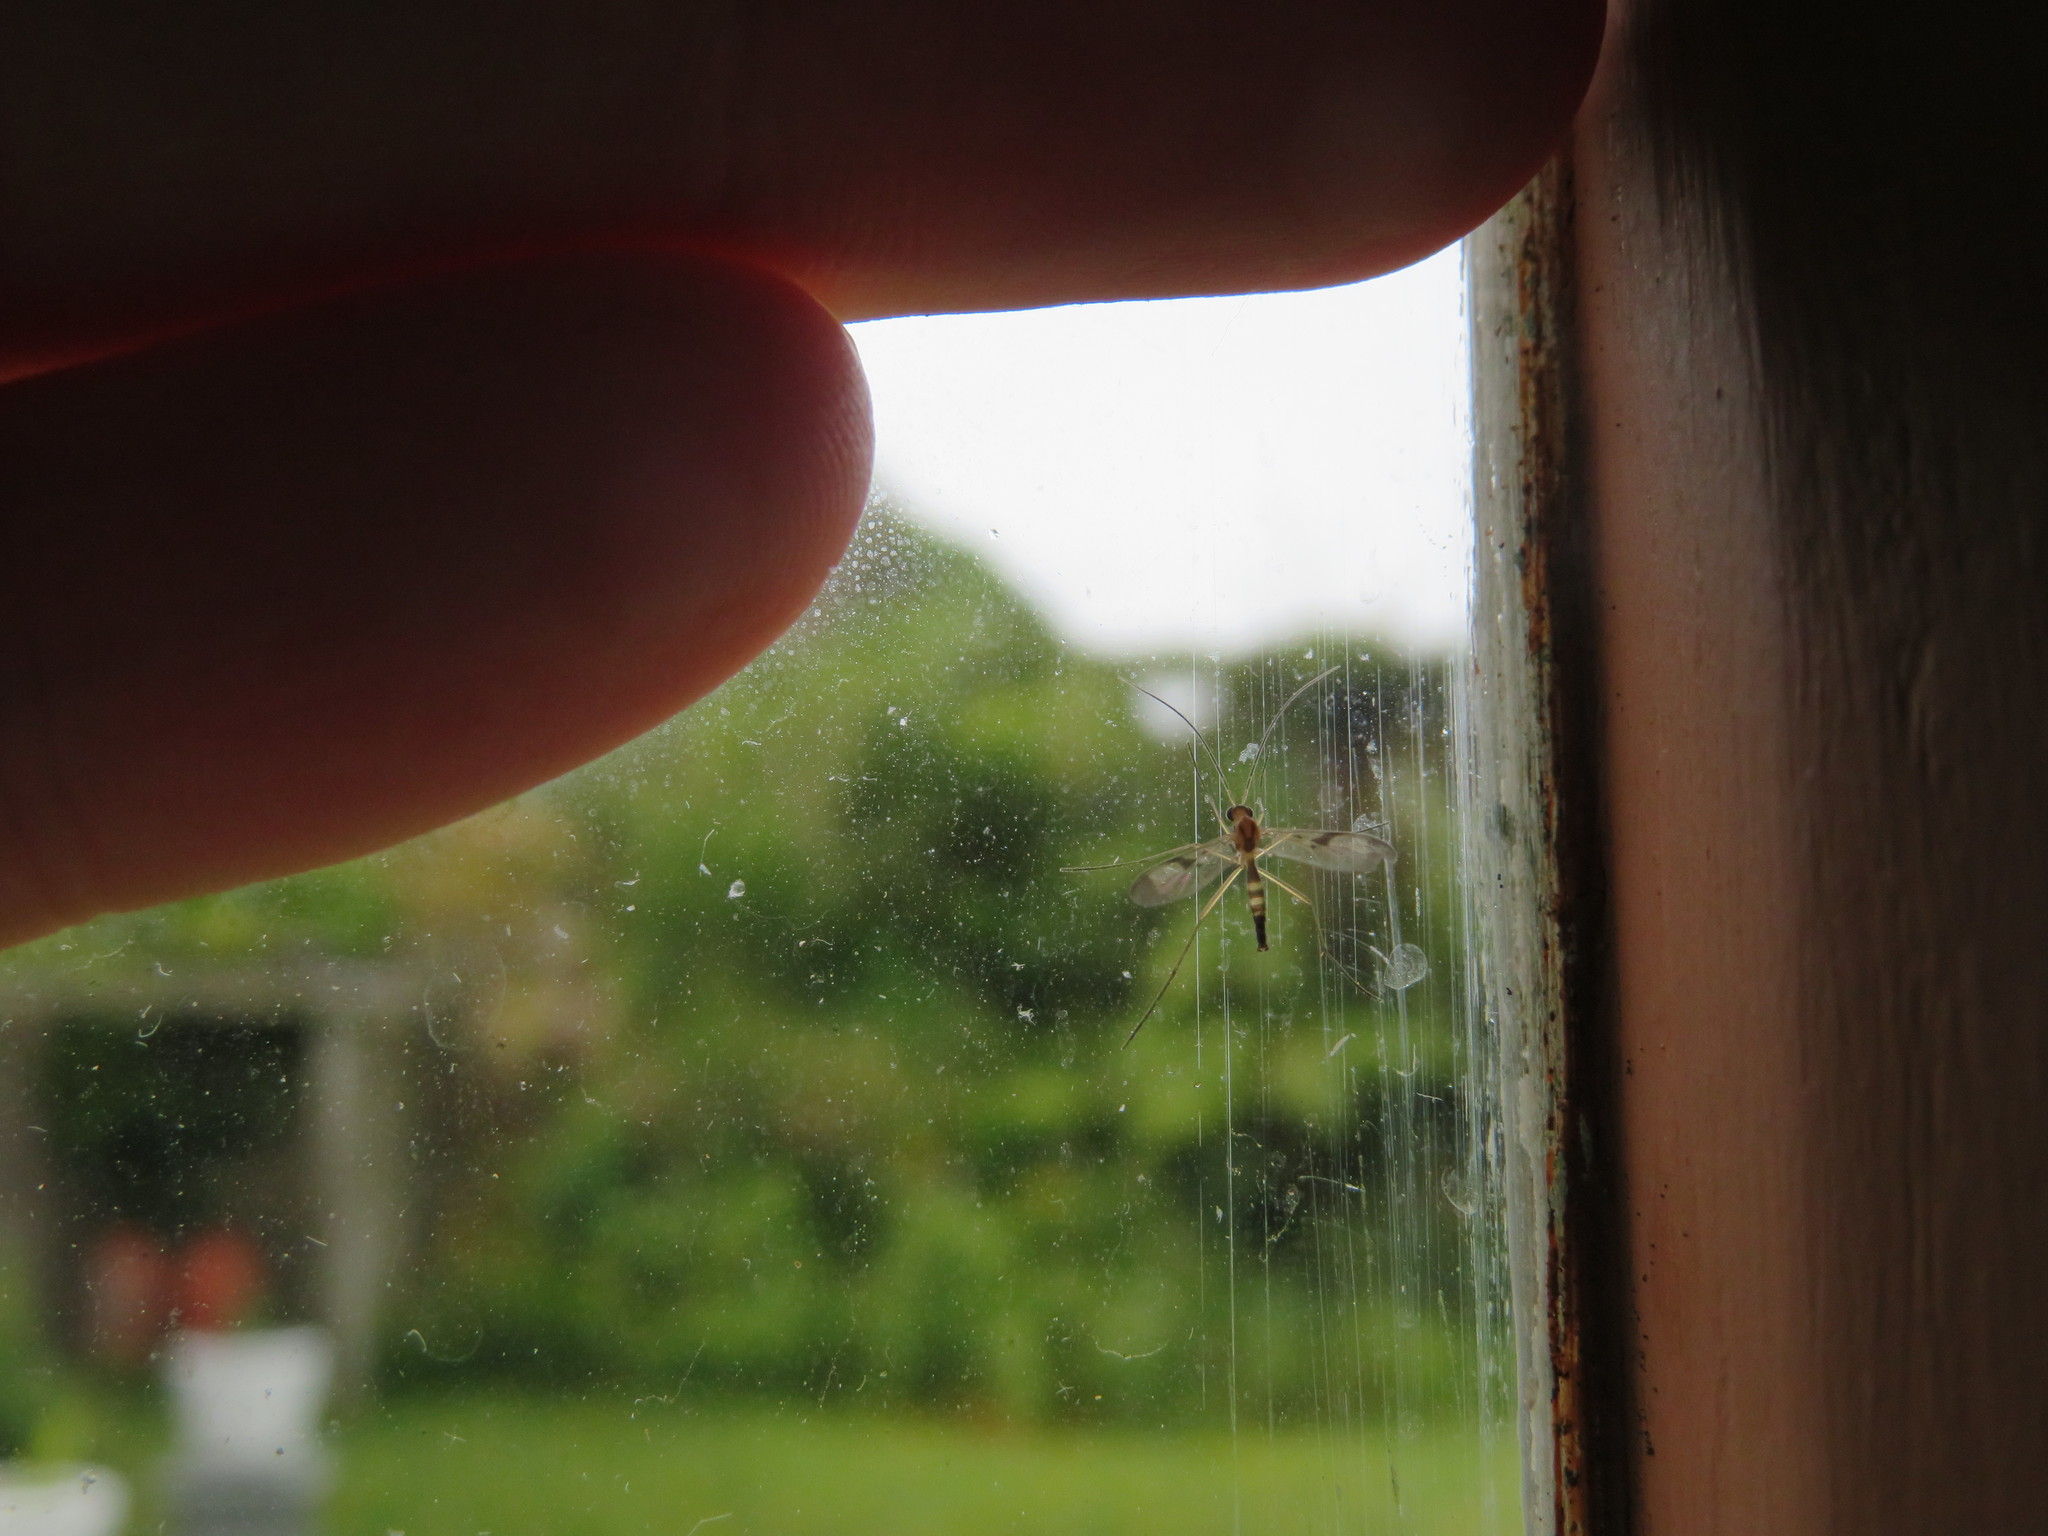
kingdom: Animalia
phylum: Arthropoda
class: Insecta
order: Diptera
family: Keroplatidae
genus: Macrocera
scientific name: Macrocera scoparia
